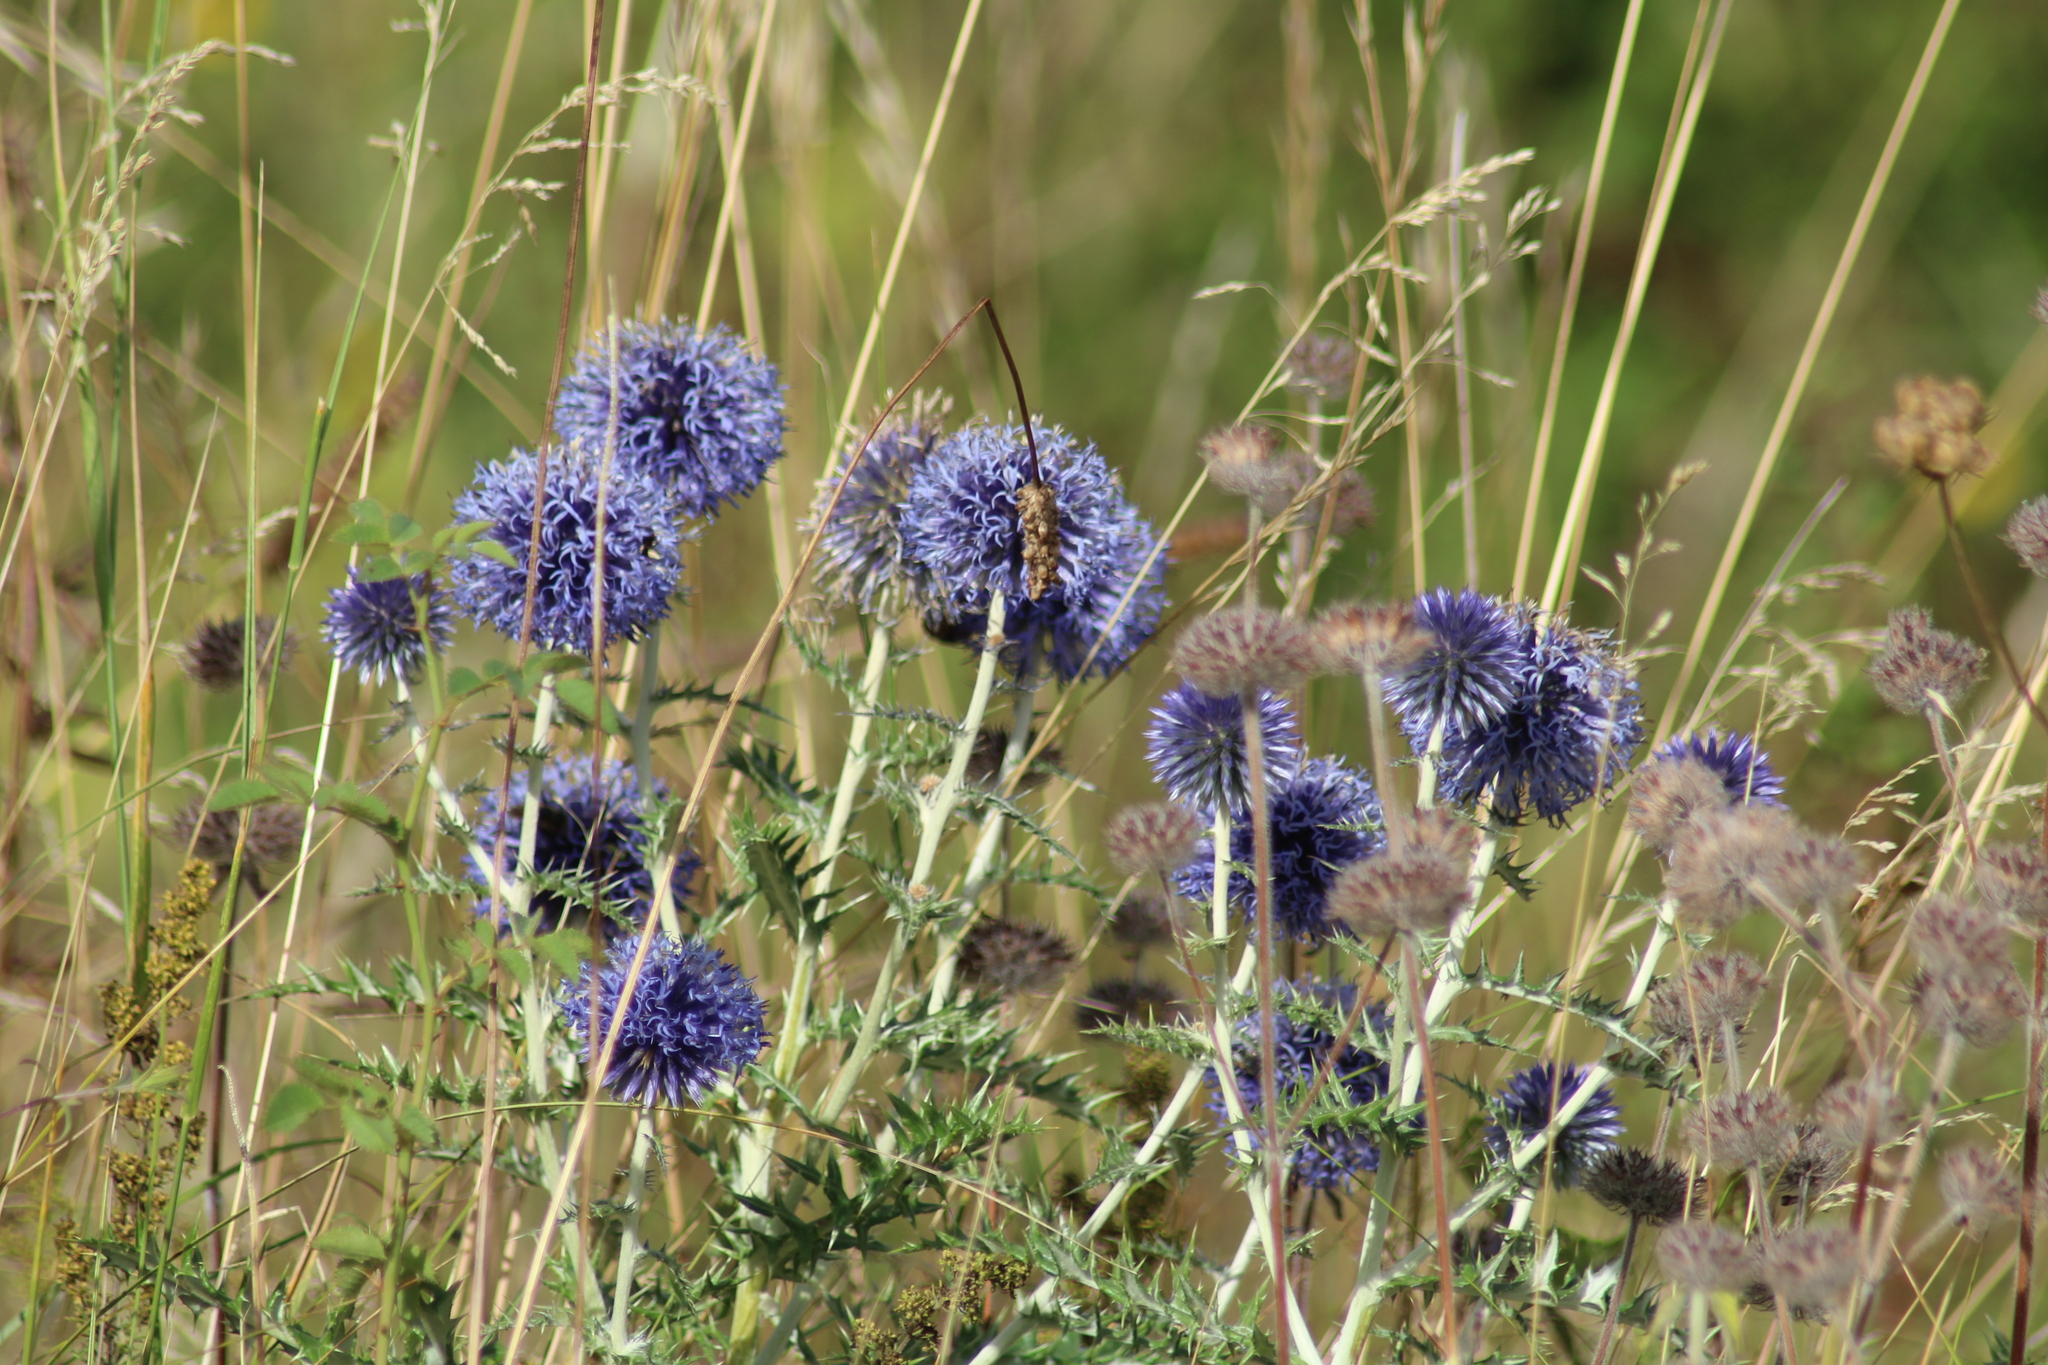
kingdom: Plantae
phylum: Tracheophyta
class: Magnoliopsida
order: Asterales
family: Asteraceae
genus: Echinops
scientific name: Echinops ritro
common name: Globe thistle
